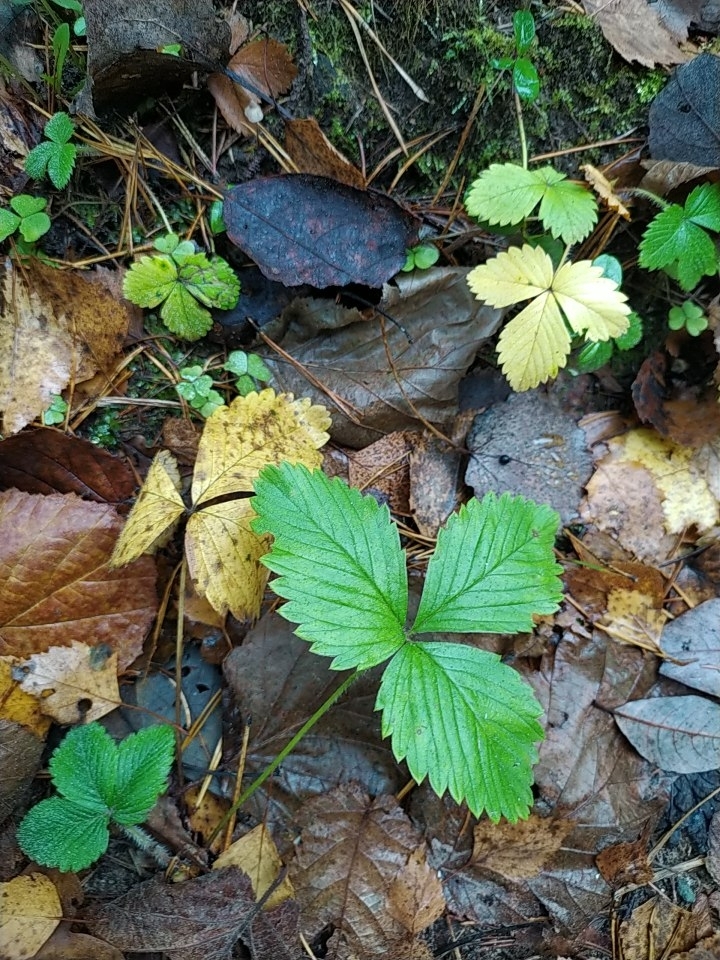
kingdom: Plantae
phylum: Tracheophyta
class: Magnoliopsida
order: Rosales
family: Rosaceae
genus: Fragaria
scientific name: Fragaria vesca
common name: Wild strawberry
